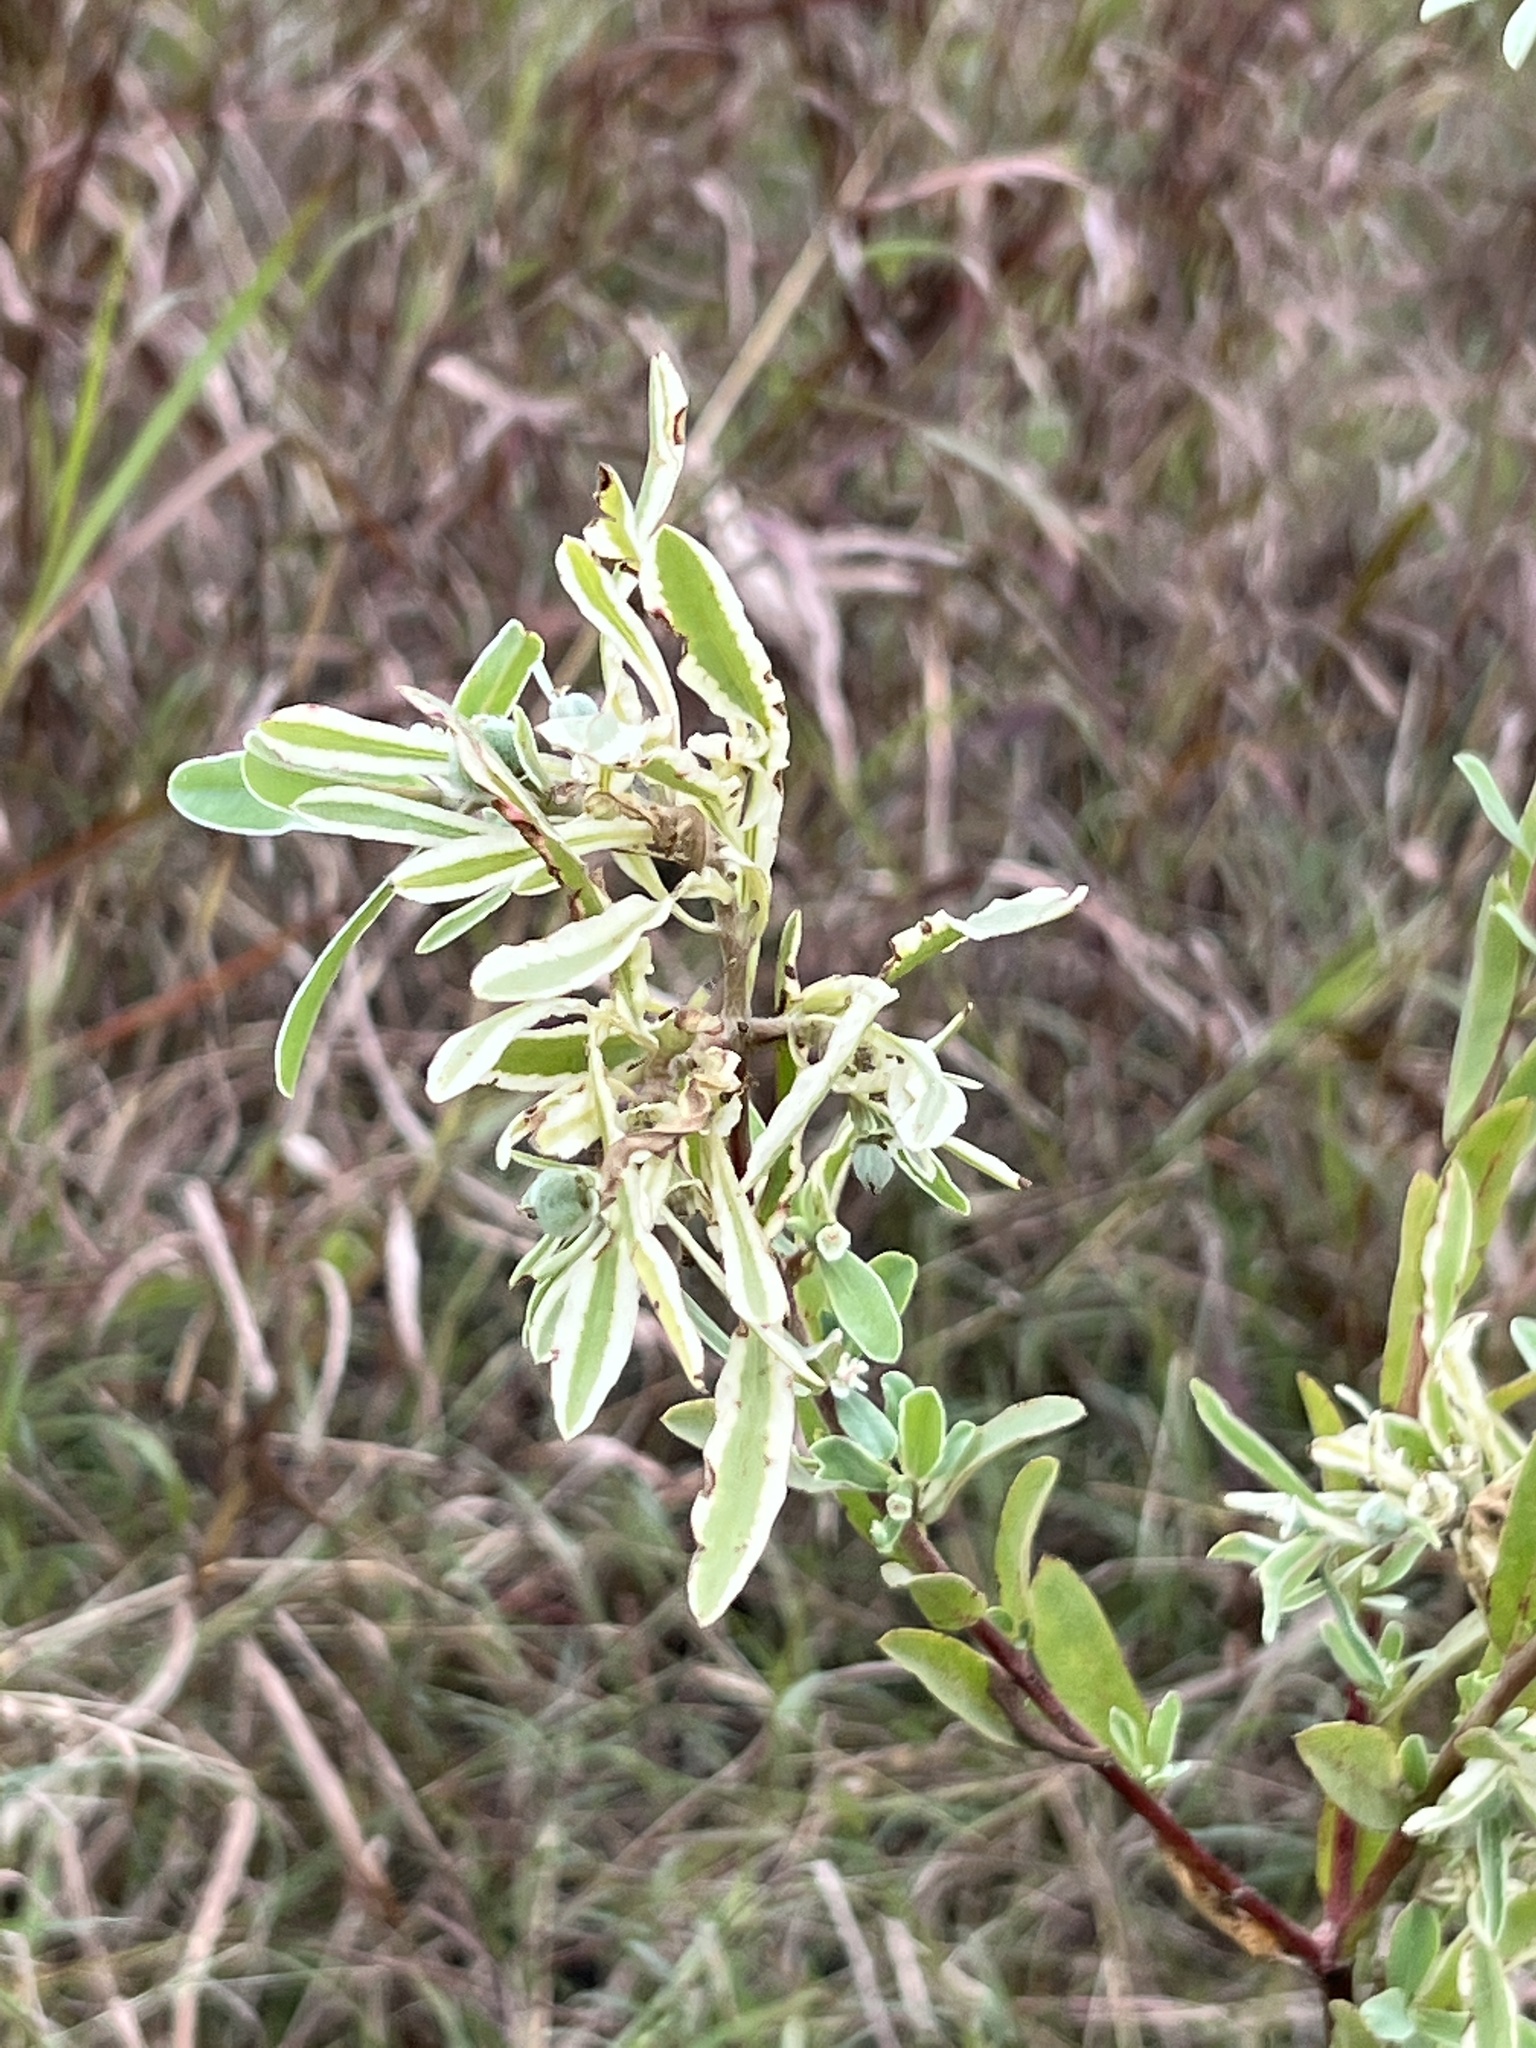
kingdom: Plantae
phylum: Tracheophyta
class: Magnoliopsida
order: Malpighiales
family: Euphorbiaceae
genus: Euphorbia
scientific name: Euphorbia bicolor
